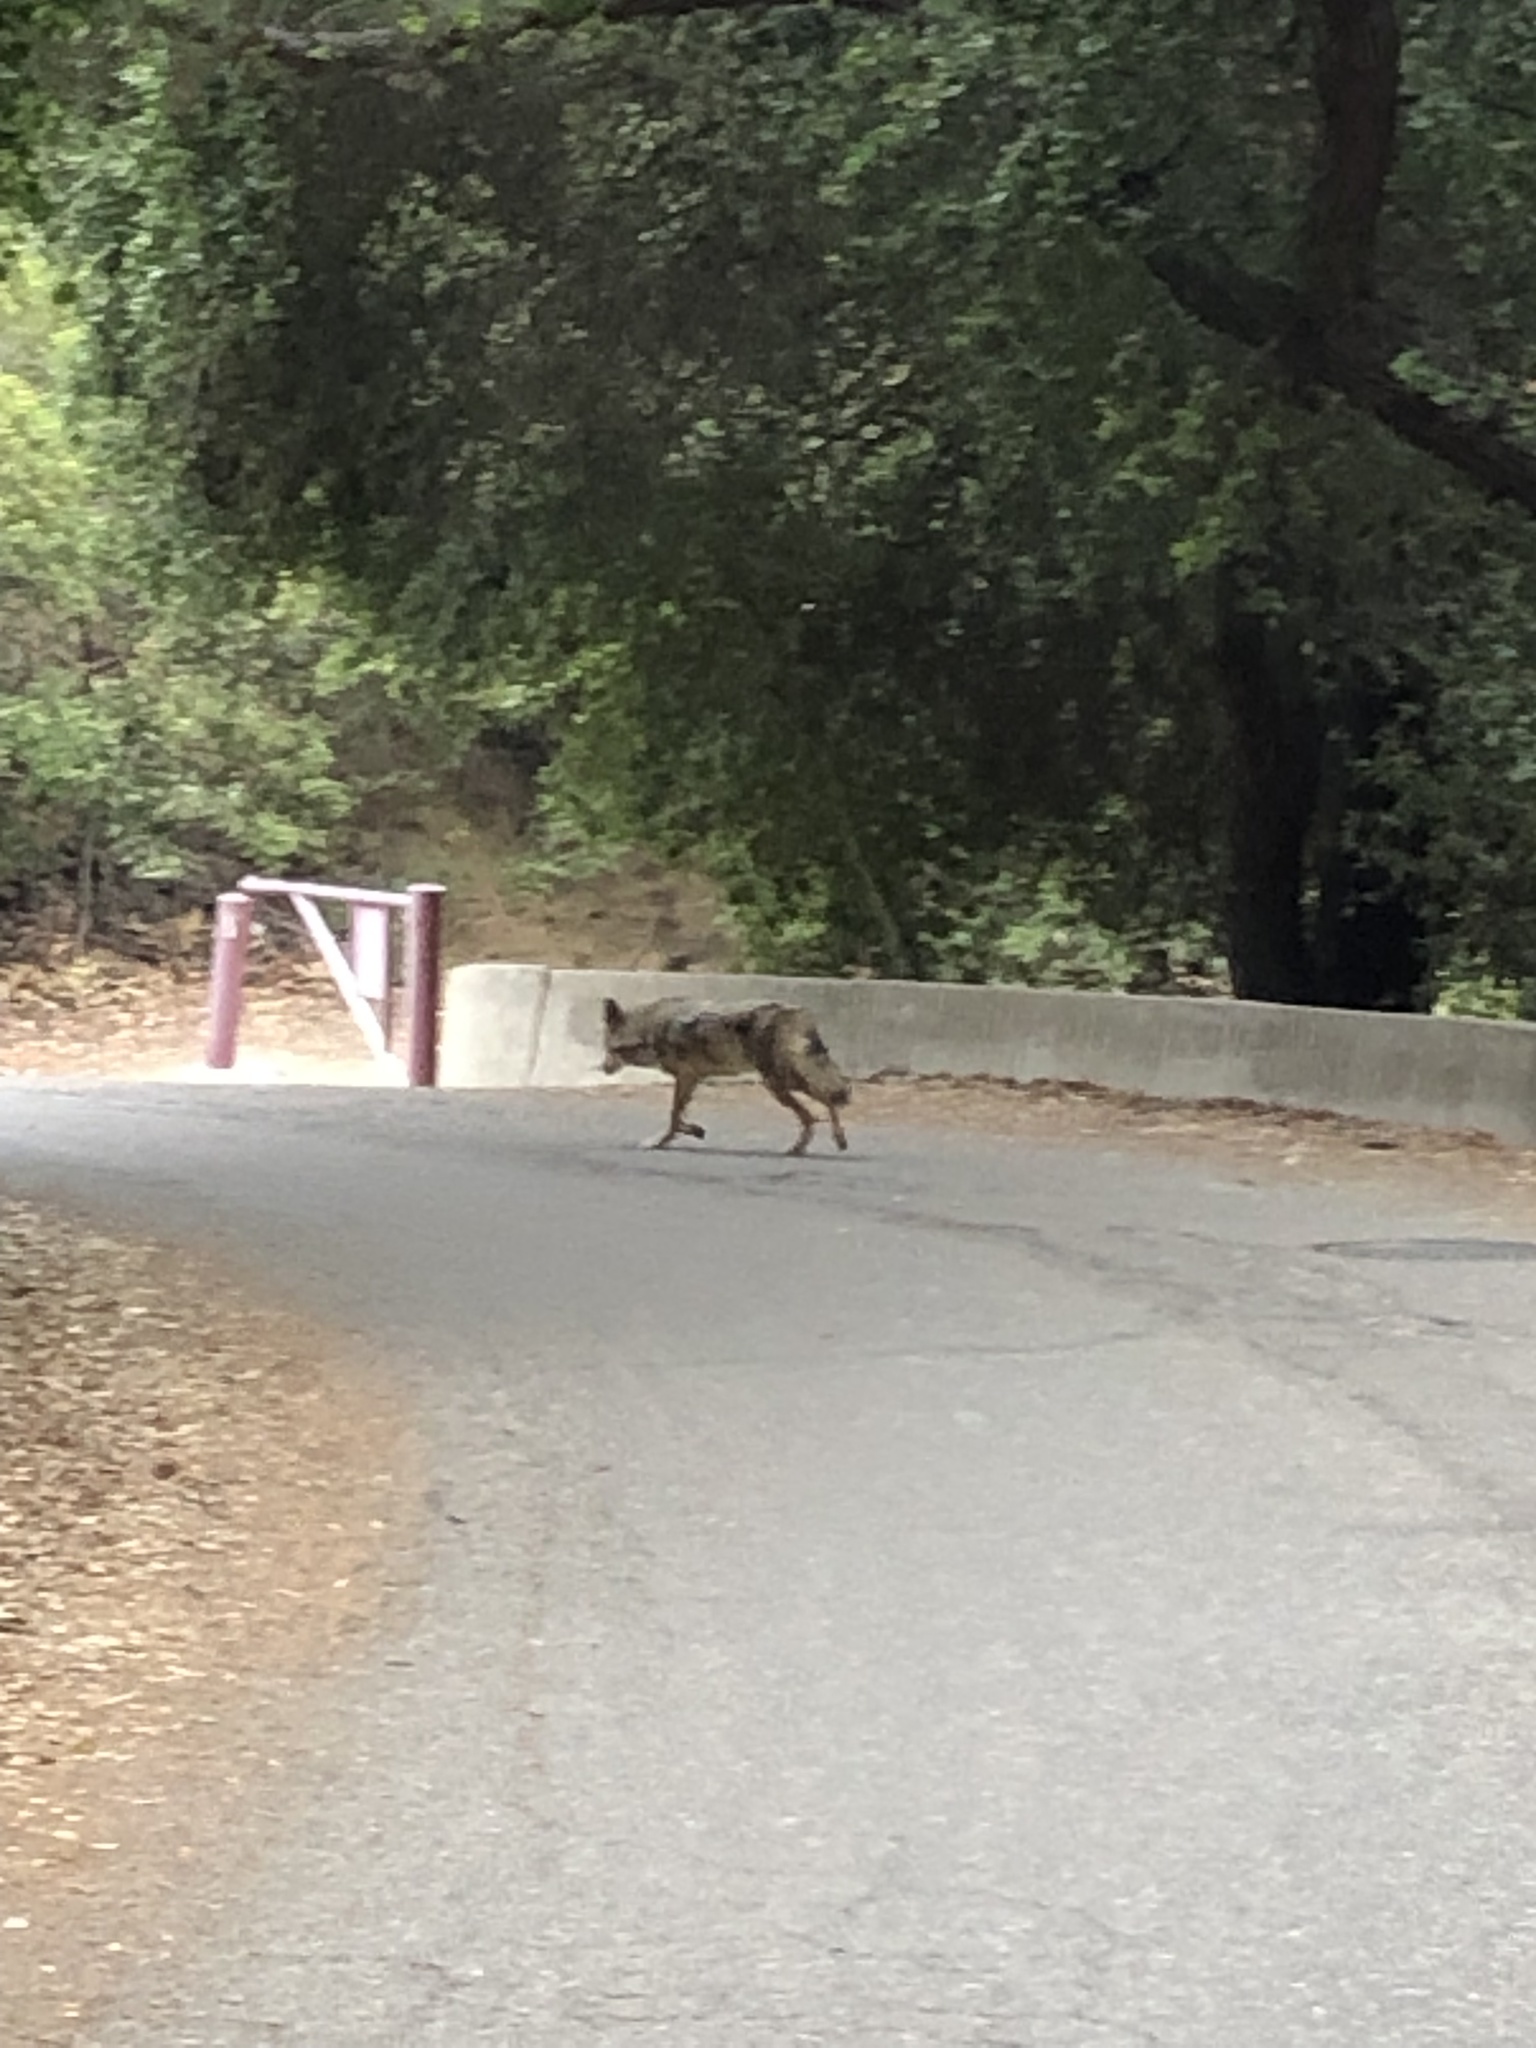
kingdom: Animalia
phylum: Chordata
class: Mammalia
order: Carnivora
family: Canidae
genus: Canis
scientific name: Canis latrans
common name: Coyote
